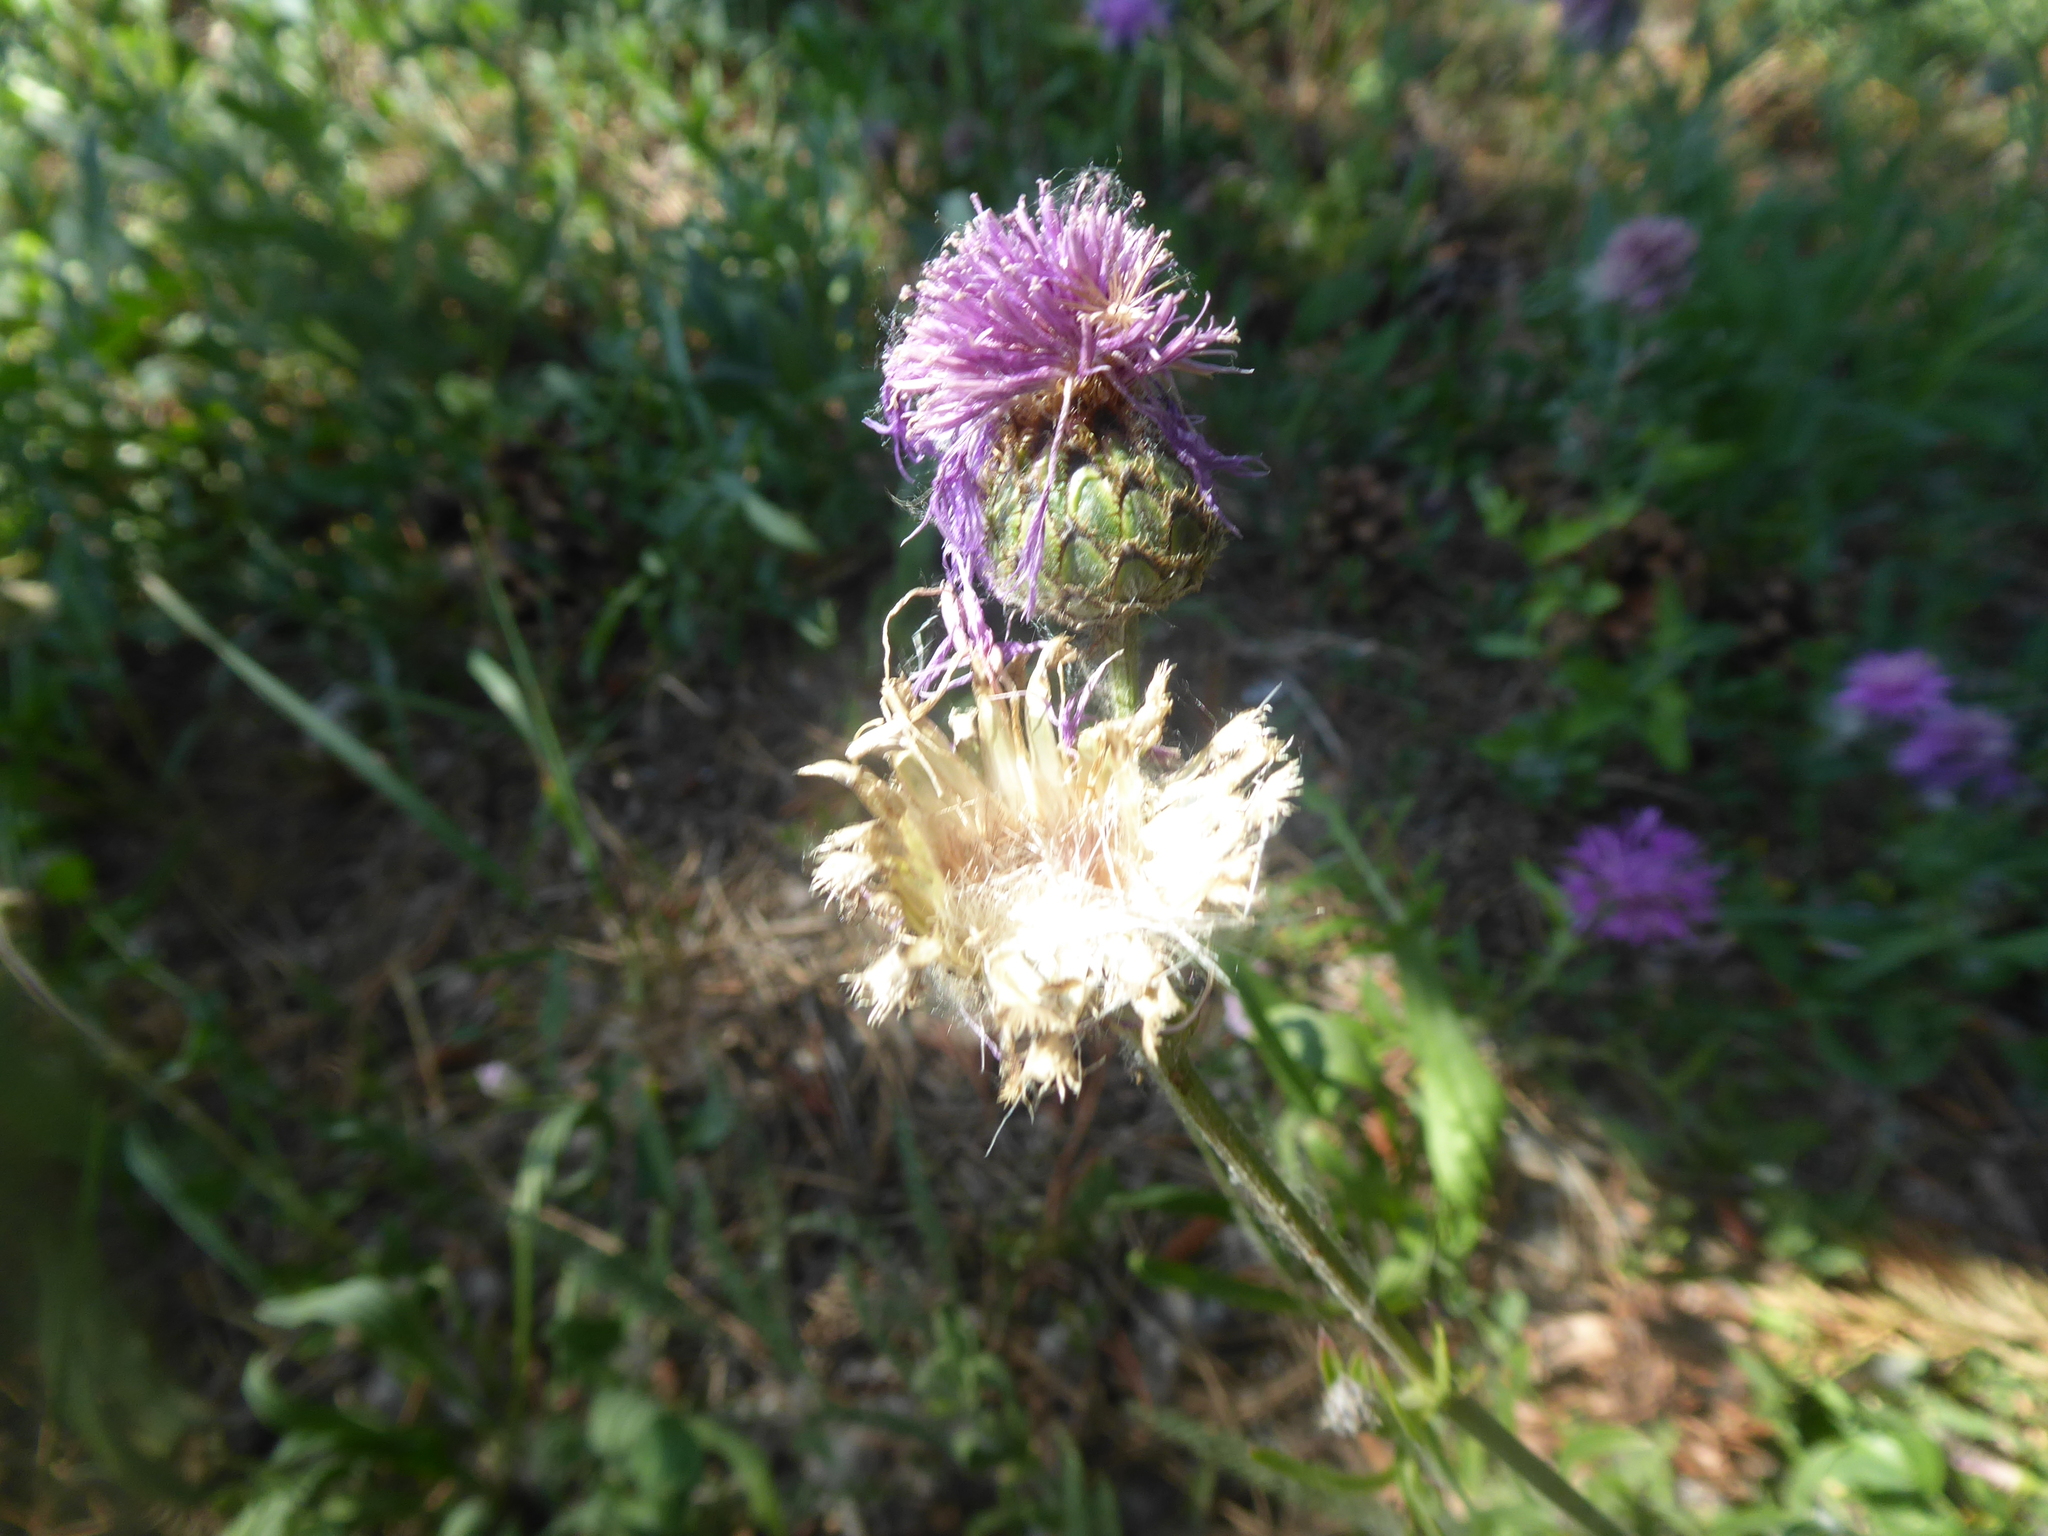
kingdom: Plantae
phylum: Tracheophyta
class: Magnoliopsida
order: Asterales
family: Asteraceae
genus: Centaurea
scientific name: Centaurea scabiosa
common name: Greater knapweed
